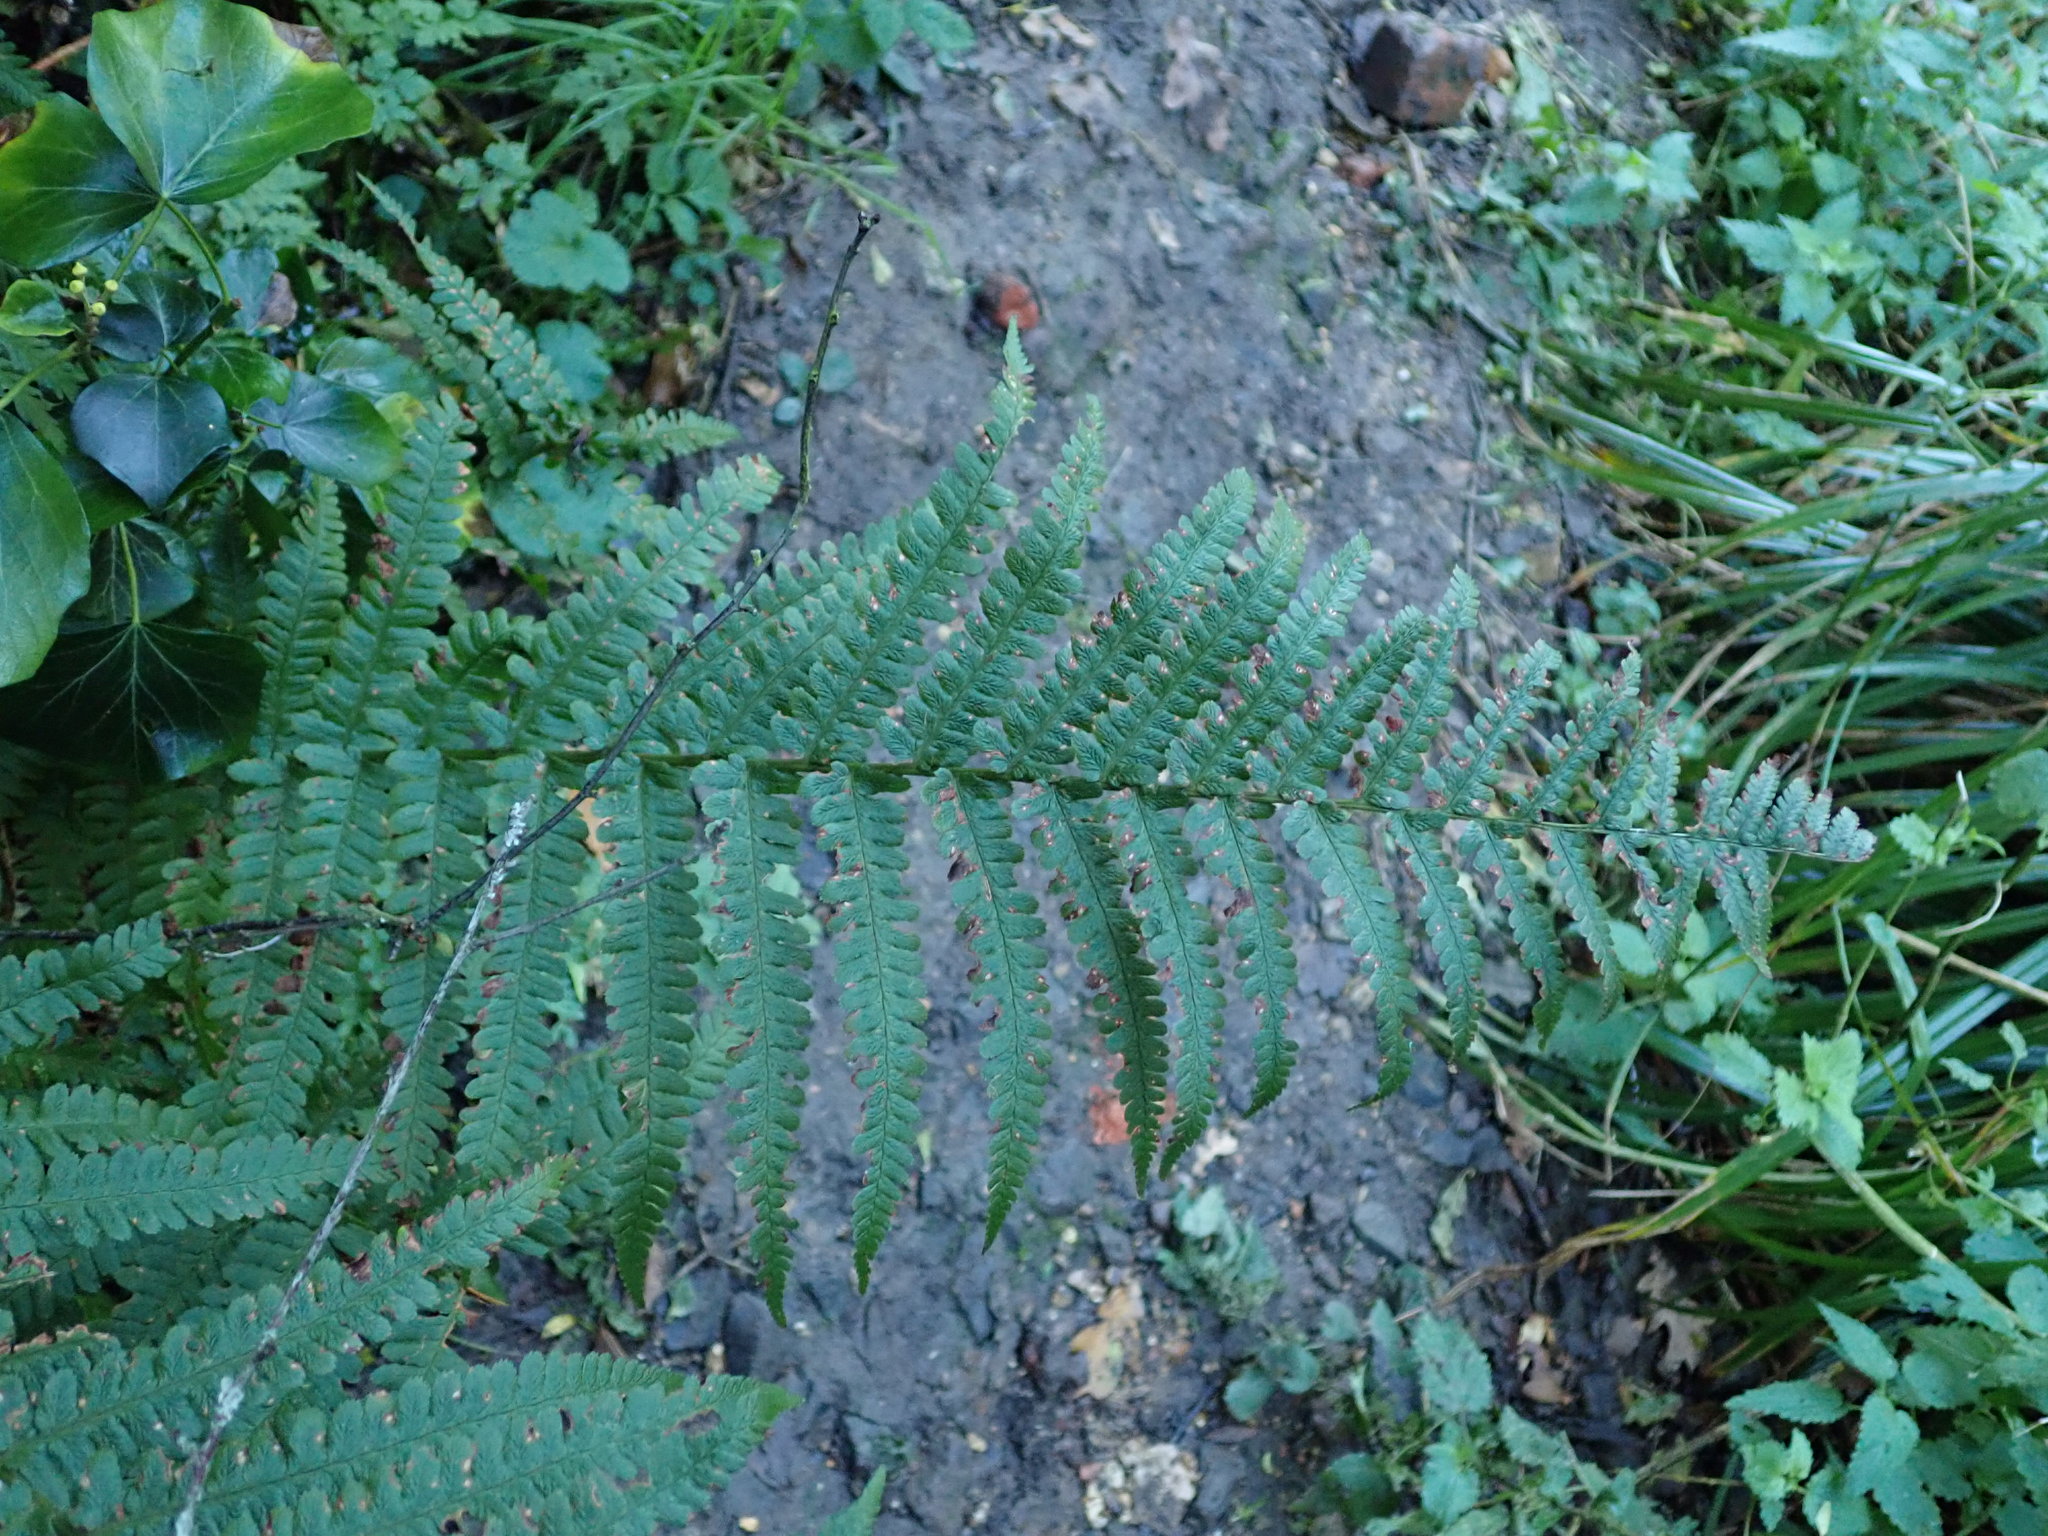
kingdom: Plantae
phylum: Tracheophyta
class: Polypodiopsida
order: Polypodiales
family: Dryopteridaceae
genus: Dryopteris
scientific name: Dryopteris filix-mas
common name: Male fern
